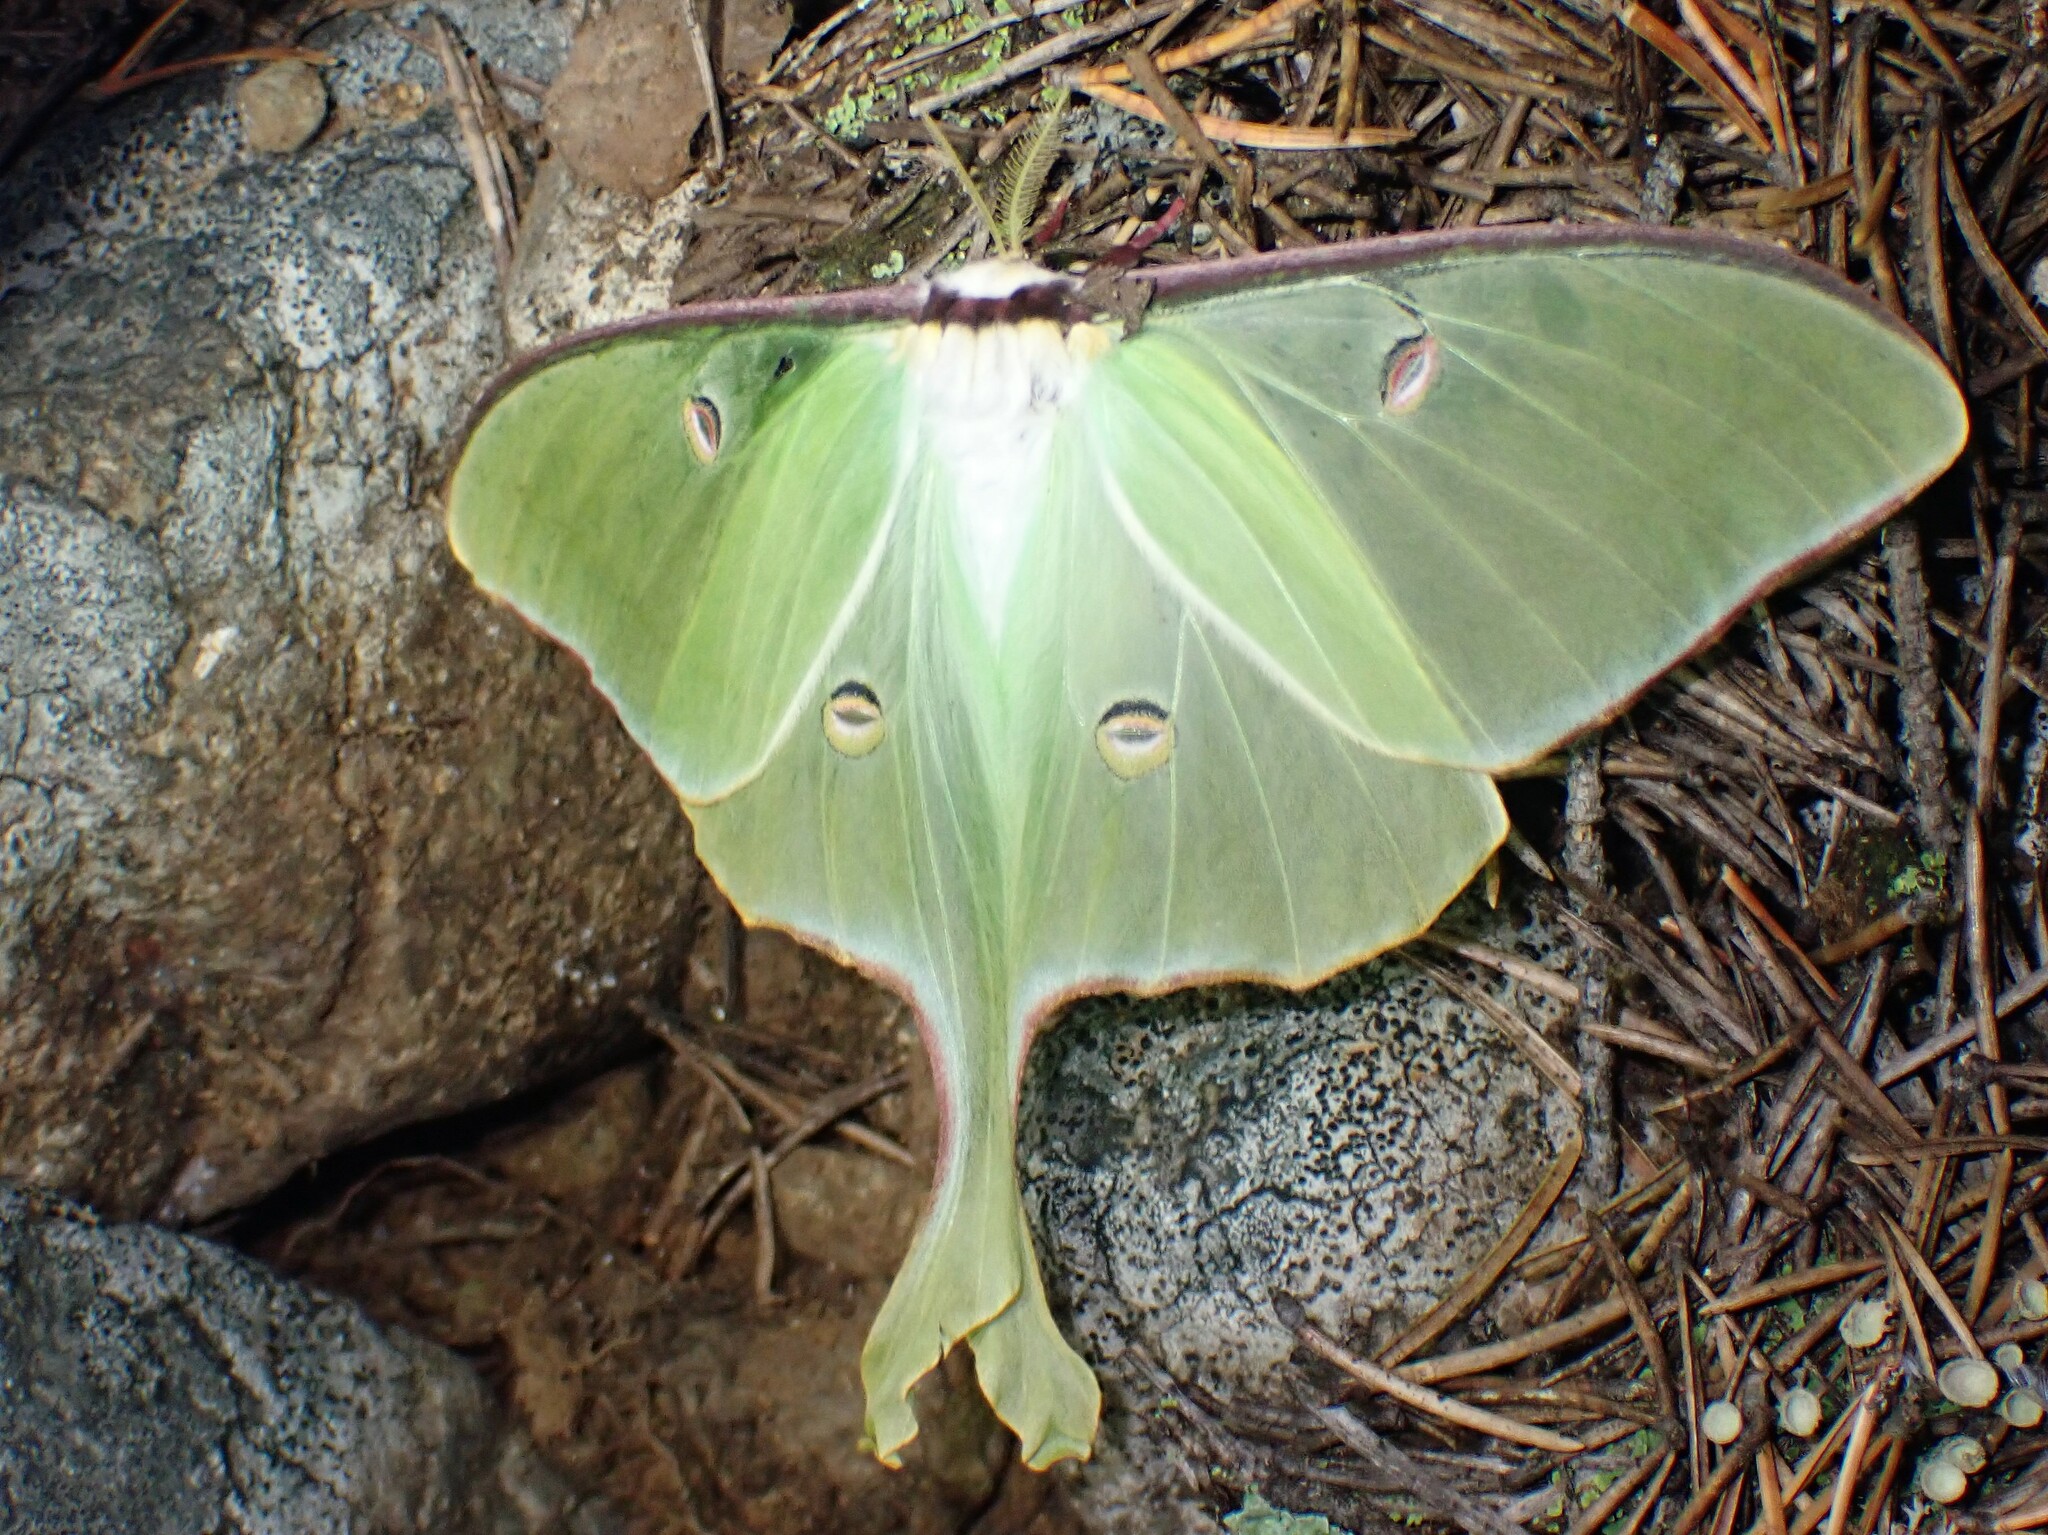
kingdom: Animalia
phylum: Arthropoda
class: Insecta
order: Lepidoptera
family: Saturniidae
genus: Actias
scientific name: Actias luna
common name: Luna moth
